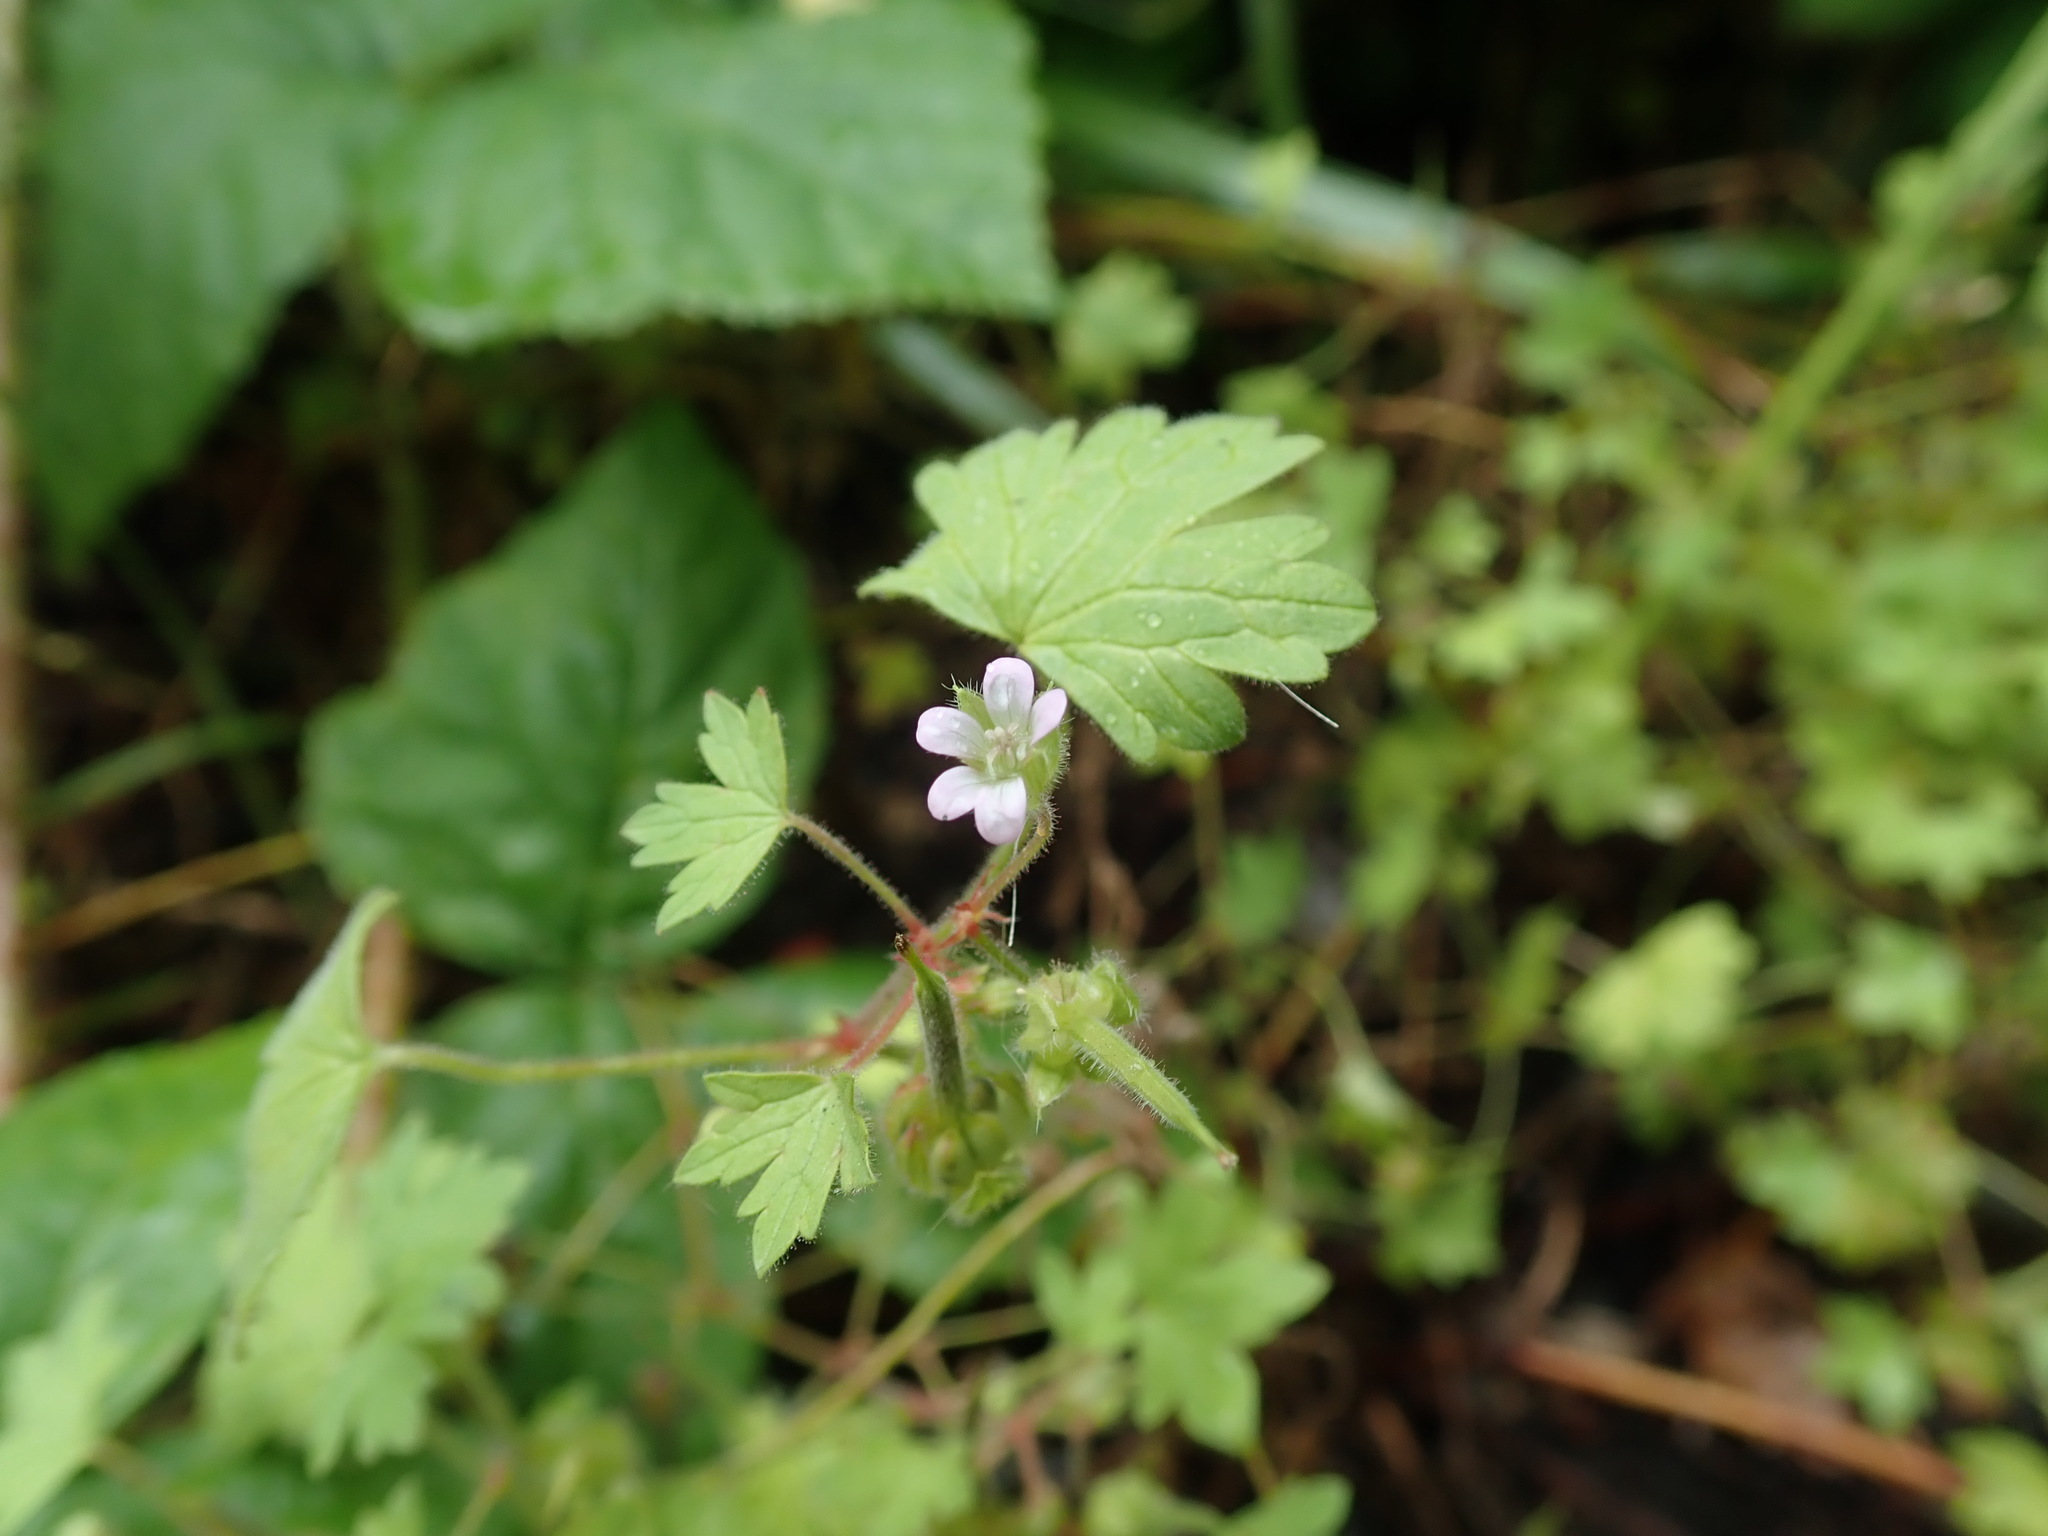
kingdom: Plantae
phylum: Tracheophyta
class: Magnoliopsida
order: Geraniales
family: Geraniaceae
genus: Geranium
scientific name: Geranium rotundifolium
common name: Round-leaved crane's-bill
